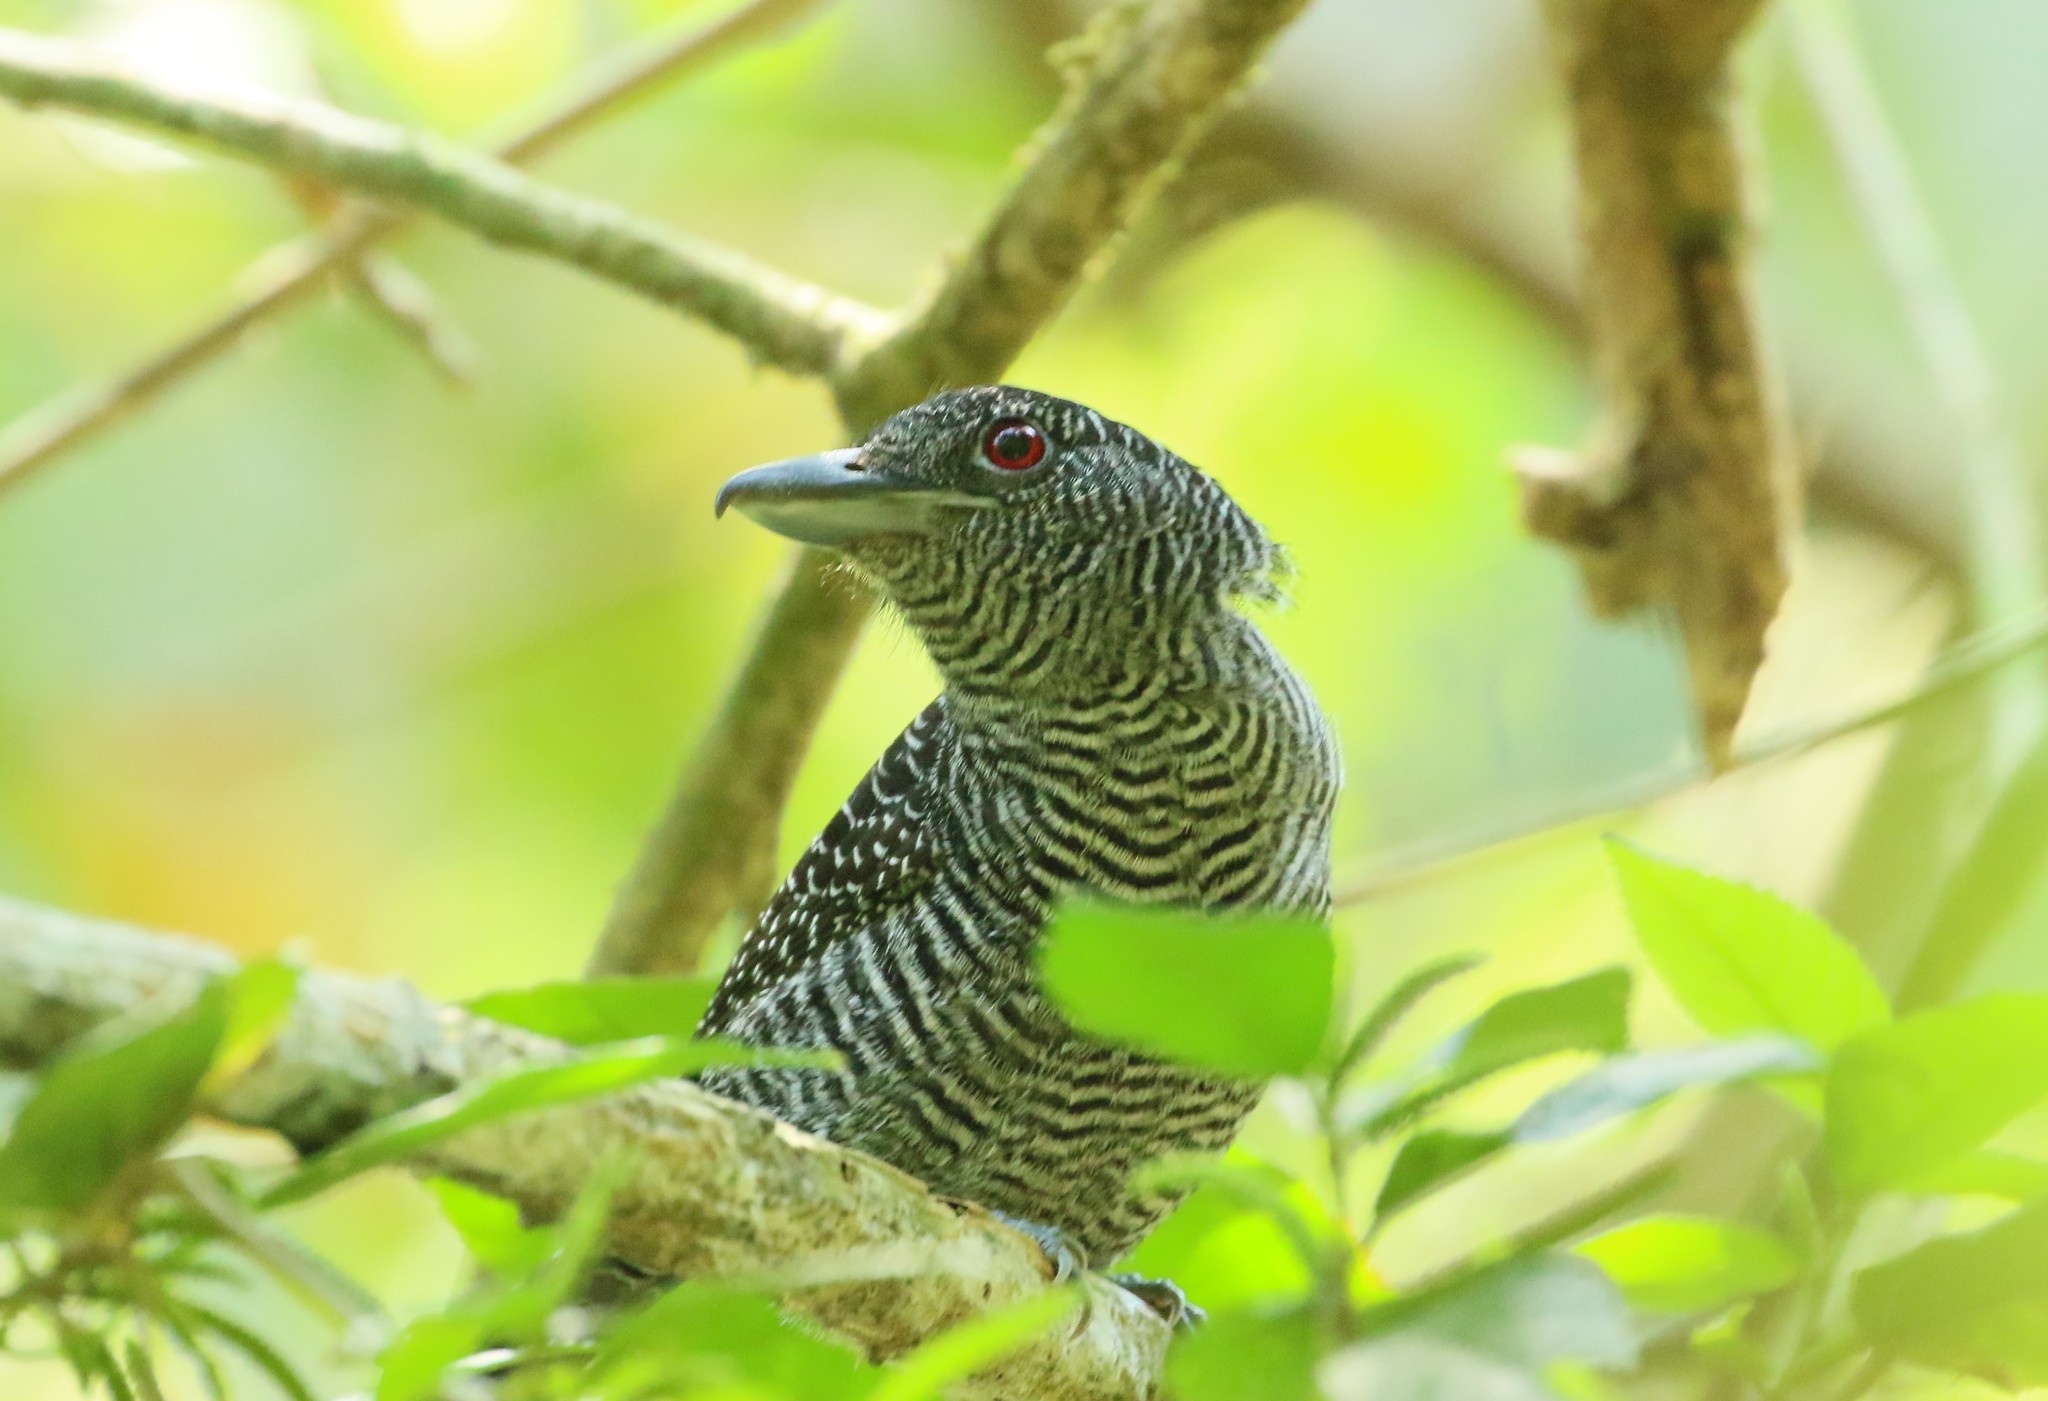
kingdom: Animalia
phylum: Chordata
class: Aves
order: Passeriformes
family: Thamnophilidae
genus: Cymbilaimus
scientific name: Cymbilaimus lineatus
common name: Fasciated antshrike
